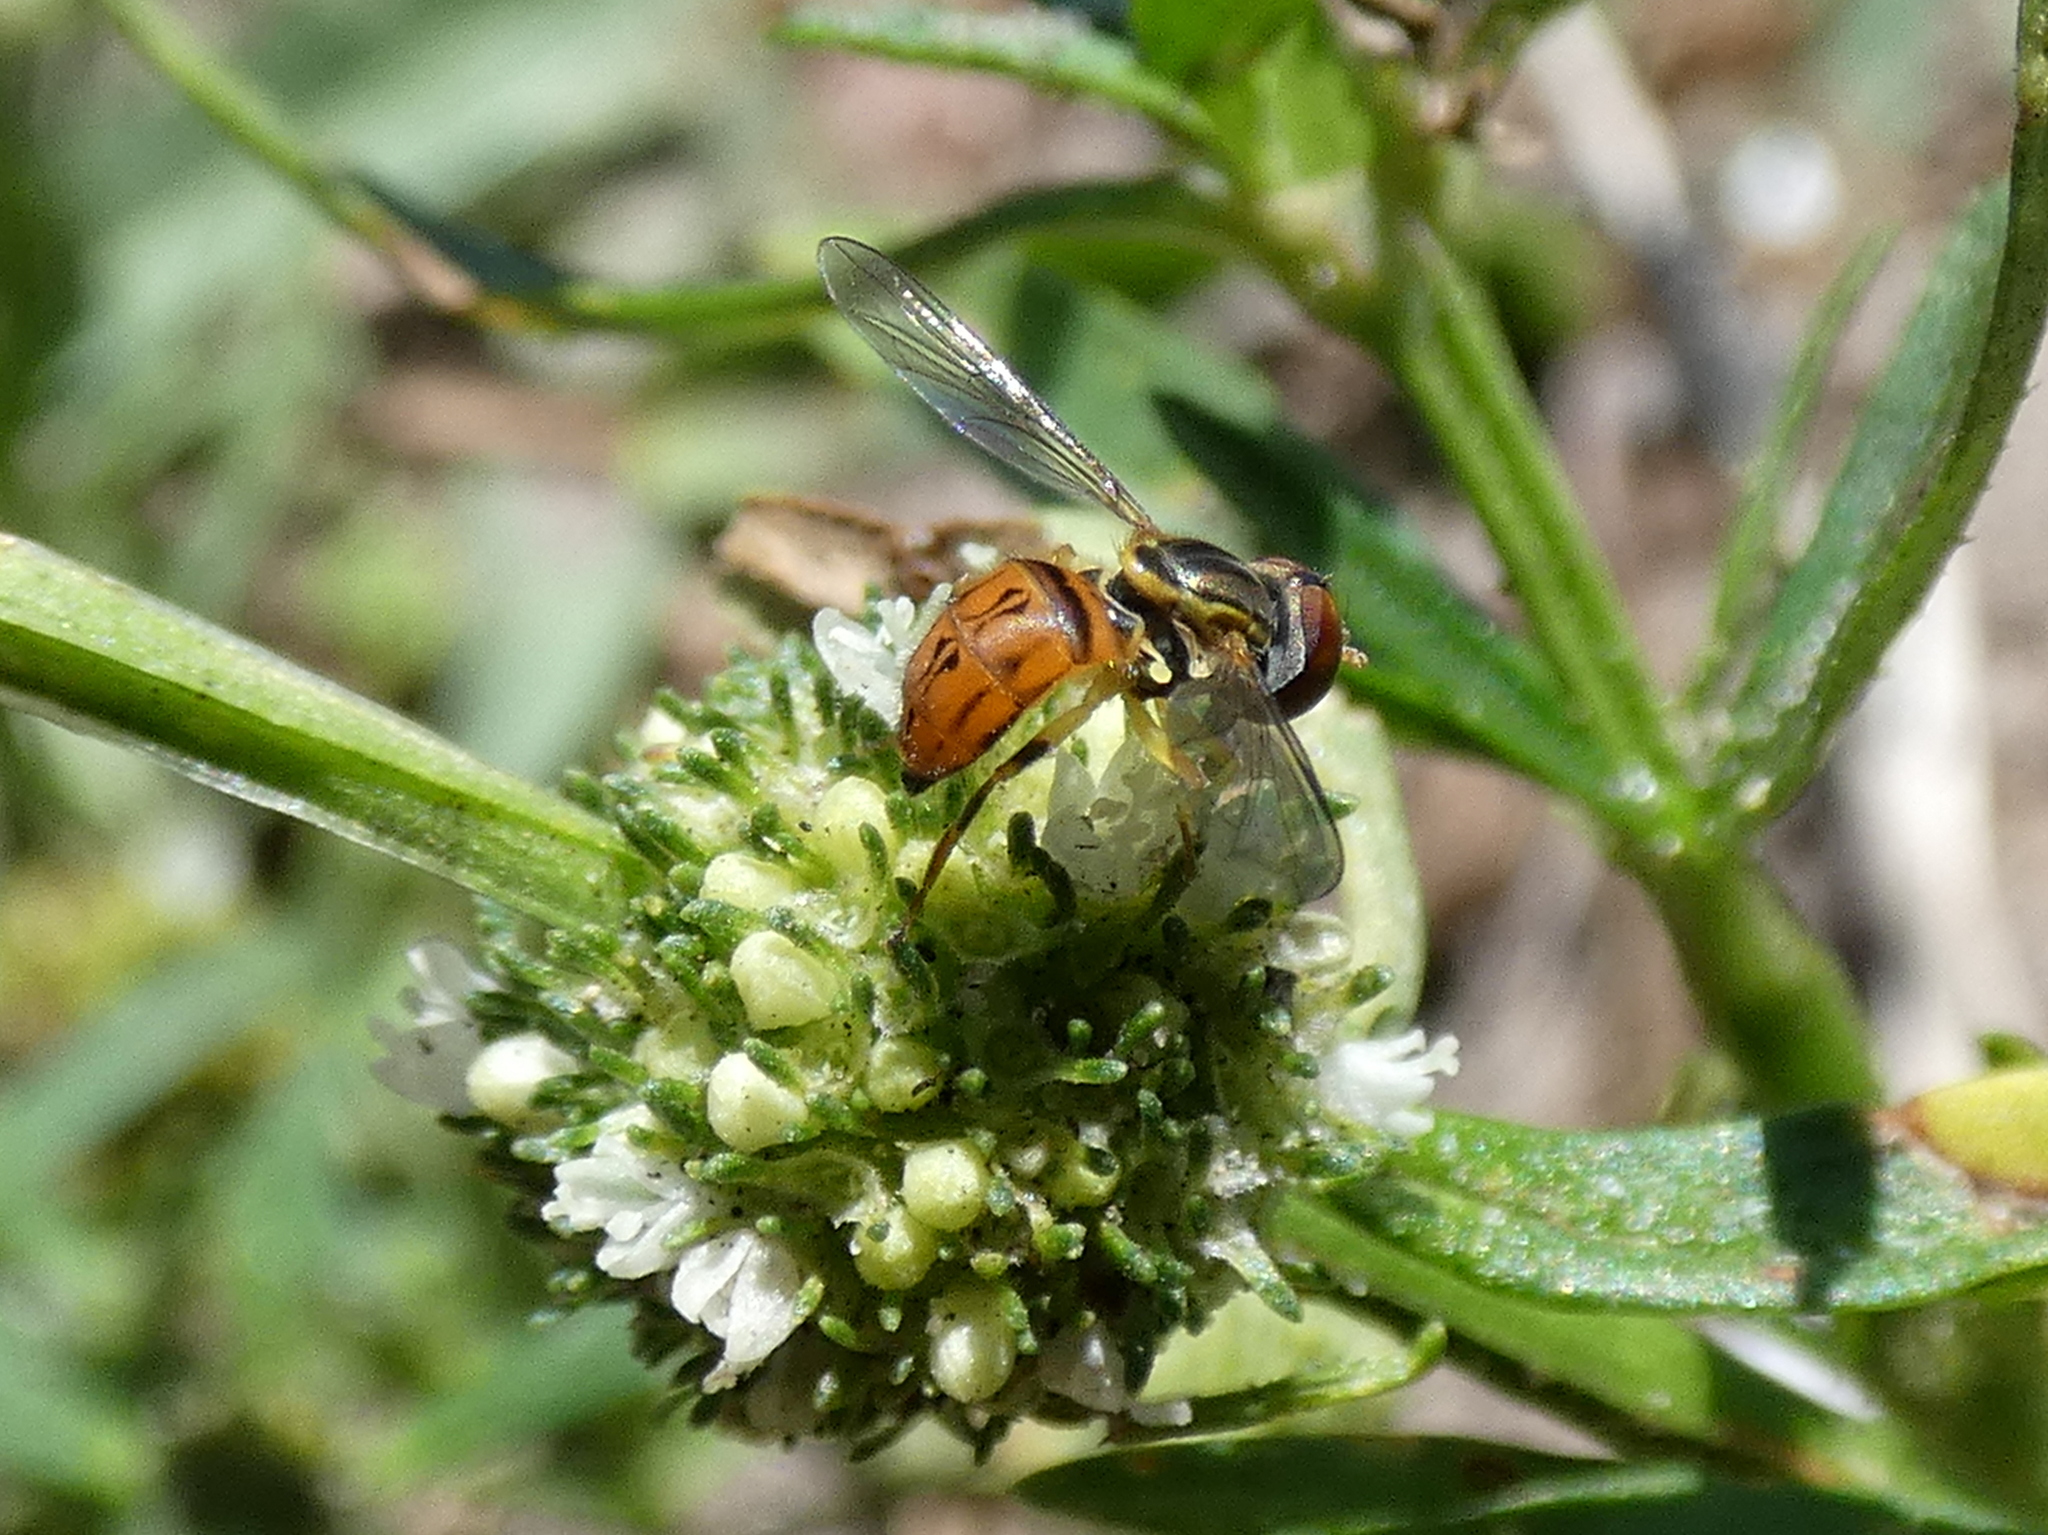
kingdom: Animalia
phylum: Arthropoda
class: Insecta
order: Diptera
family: Syrphidae
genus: Toxomerus
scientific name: Toxomerus boscii
